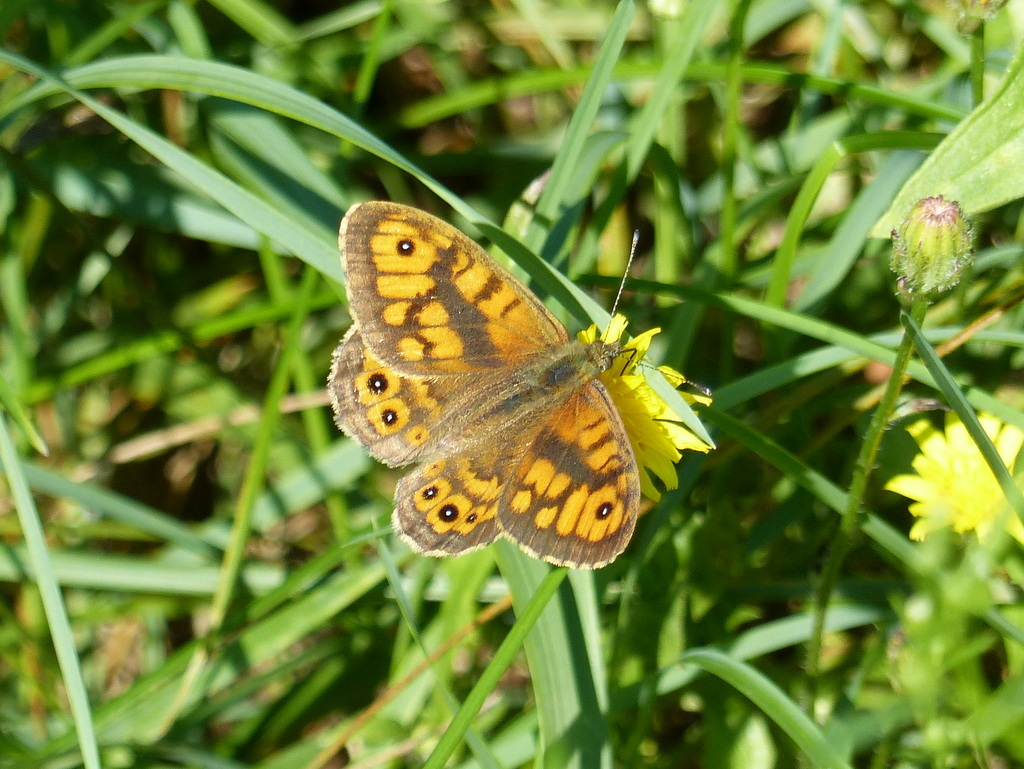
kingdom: Animalia
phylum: Arthropoda
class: Insecta
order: Lepidoptera
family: Nymphalidae
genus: Pararge
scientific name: Pararge Lasiommata megera
